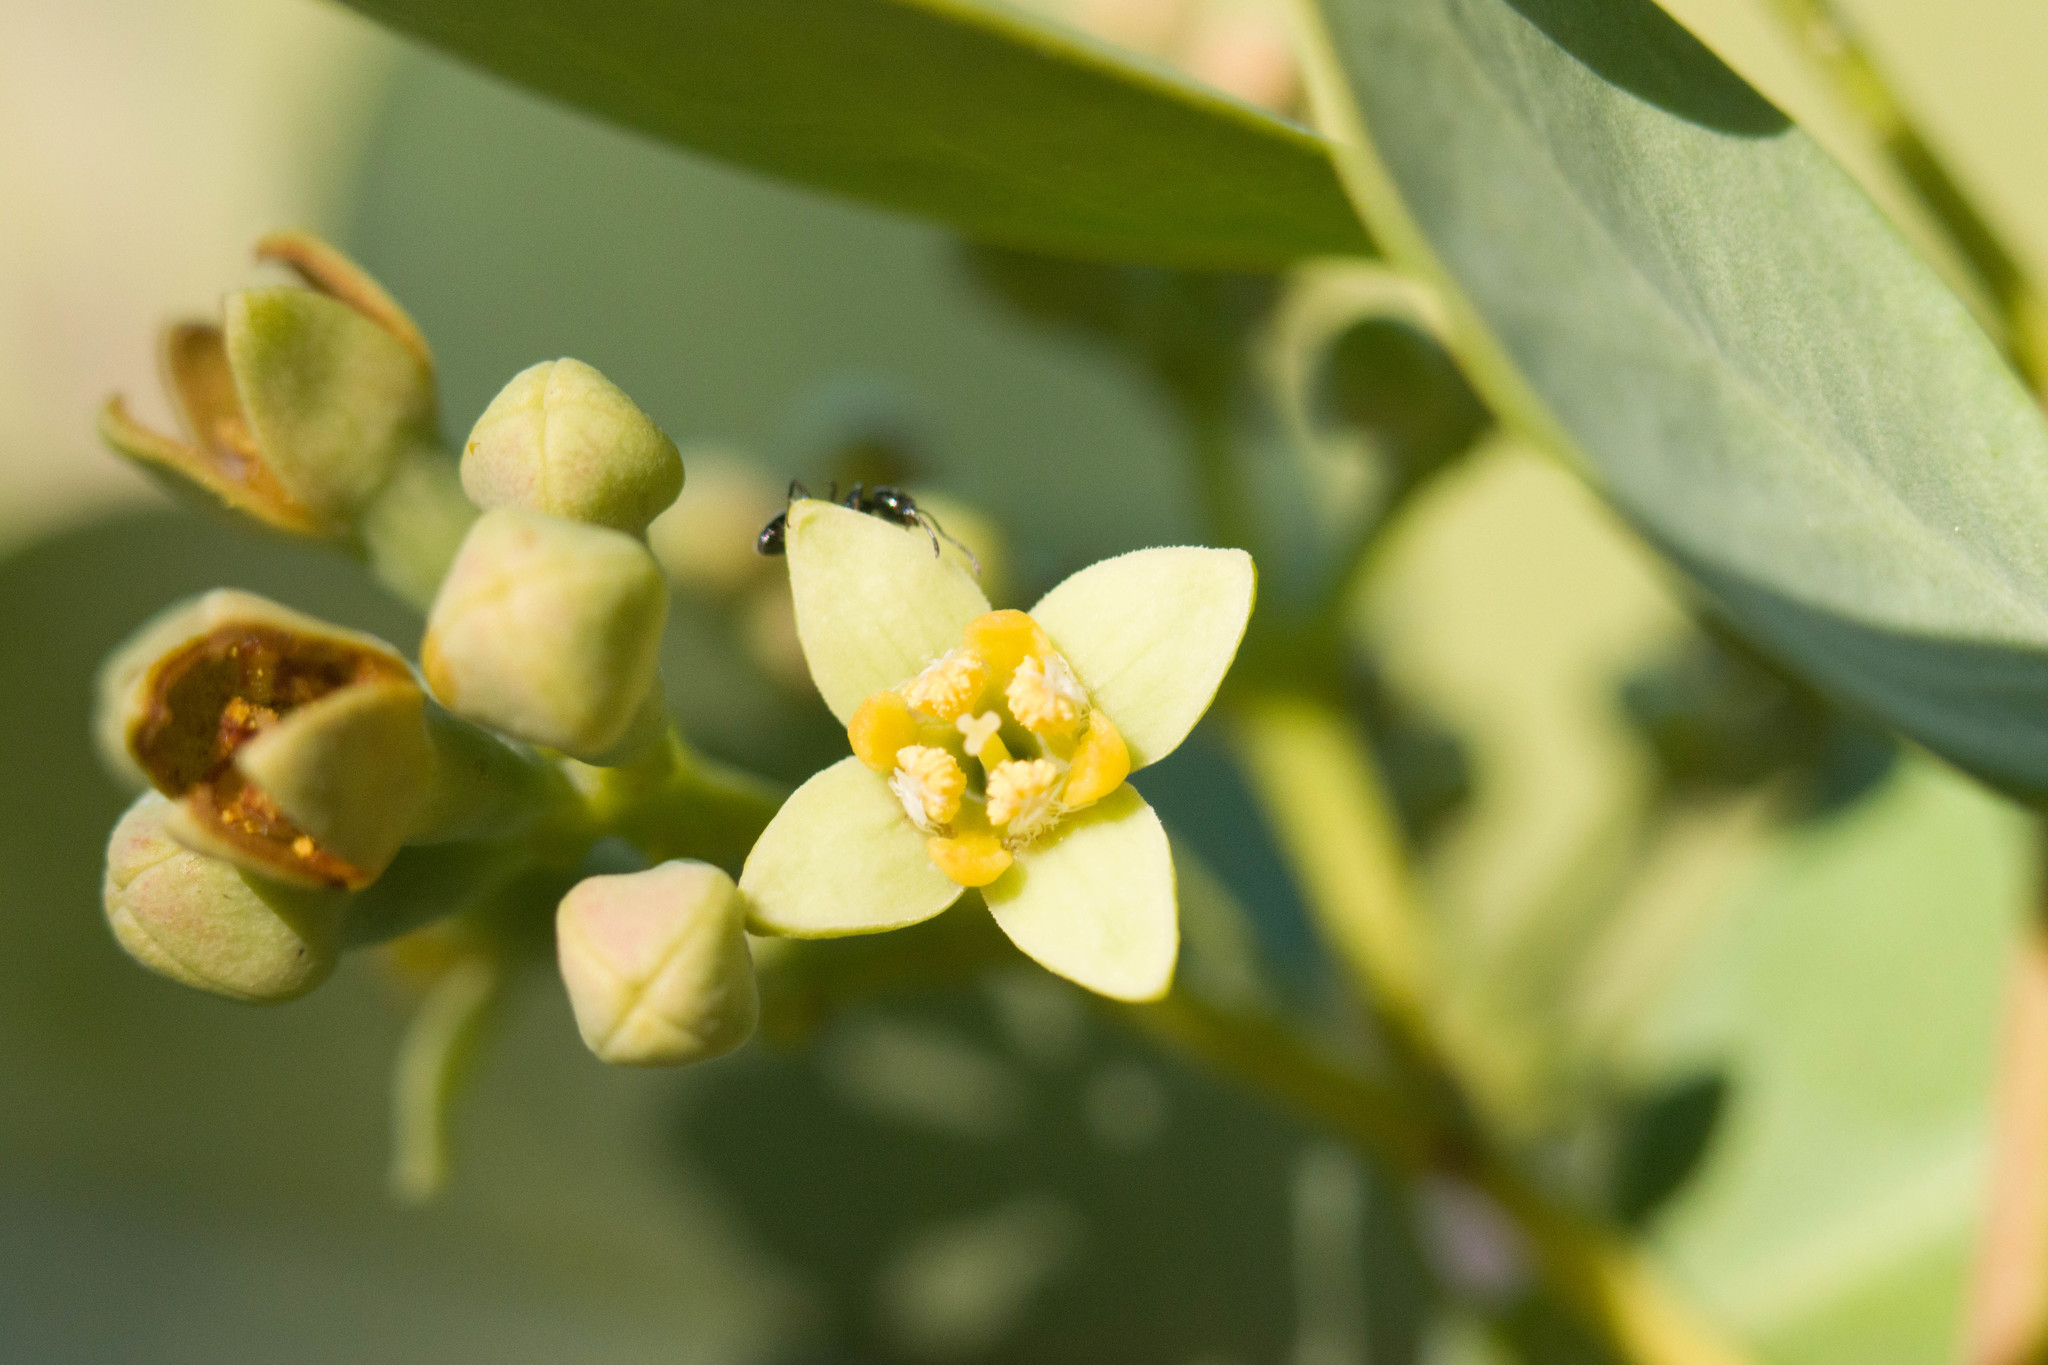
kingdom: Plantae
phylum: Tracheophyta
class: Magnoliopsida
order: Santalales
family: Santalaceae
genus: Santalum
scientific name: Santalum ellipticum
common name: Coast sandalwood
